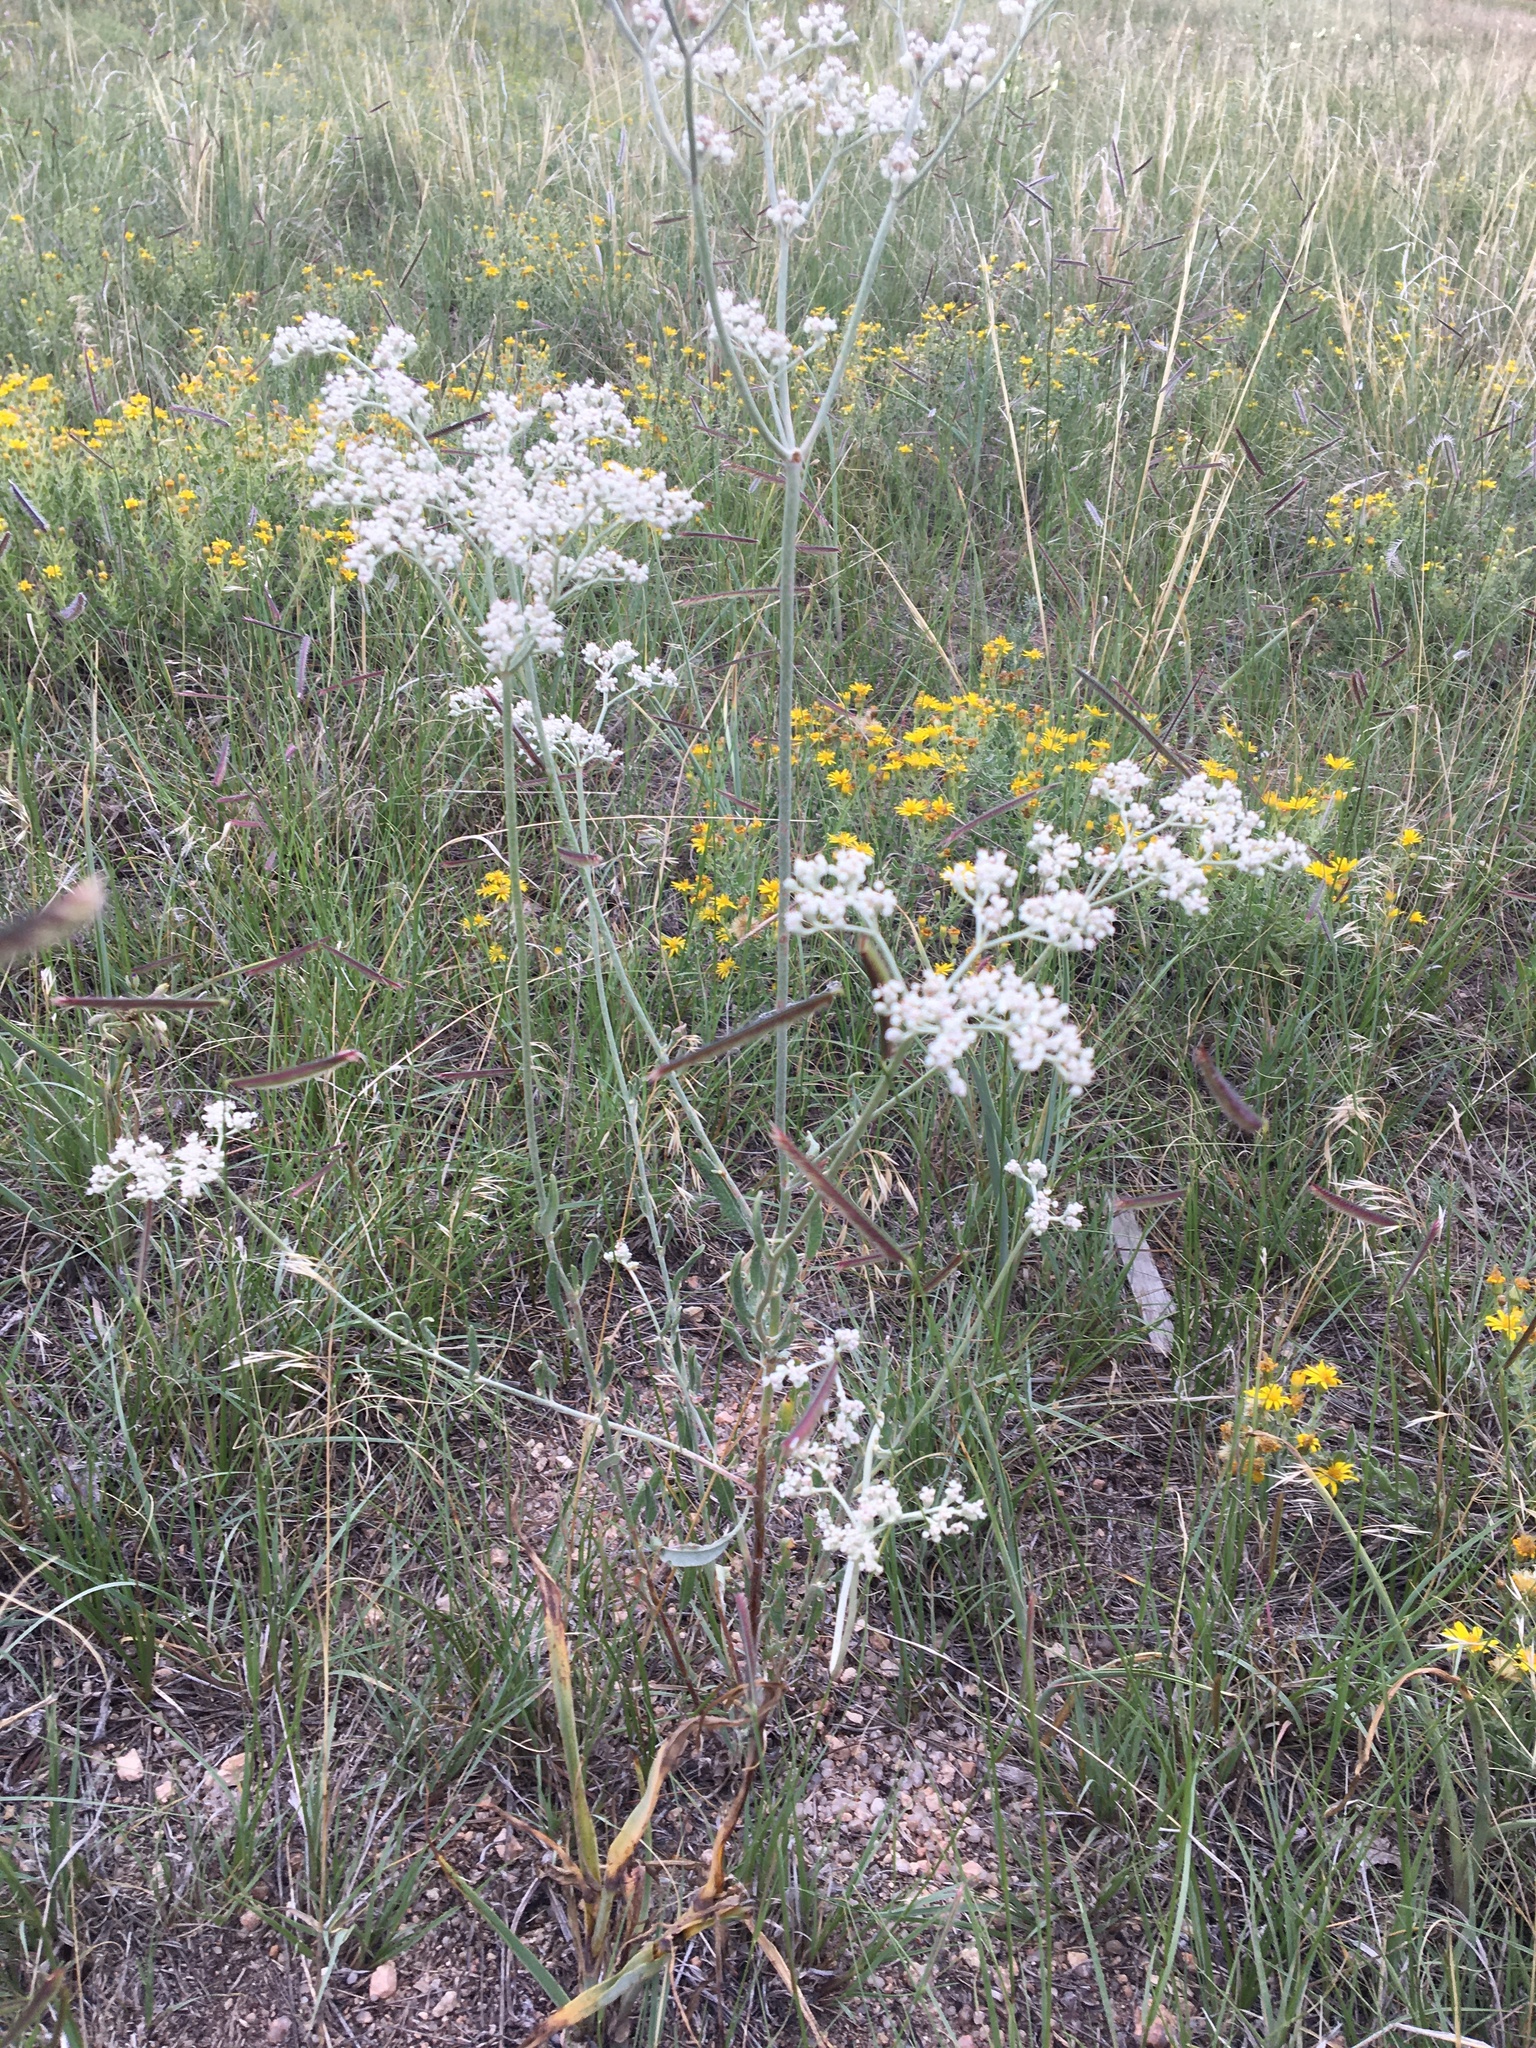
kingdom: Plantae
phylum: Tracheophyta
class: Magnoliopsida
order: Caryophyllales
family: Polygonaceae
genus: Eriogonum
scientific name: Eriogonum annuum
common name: Annual wild buckwheat
